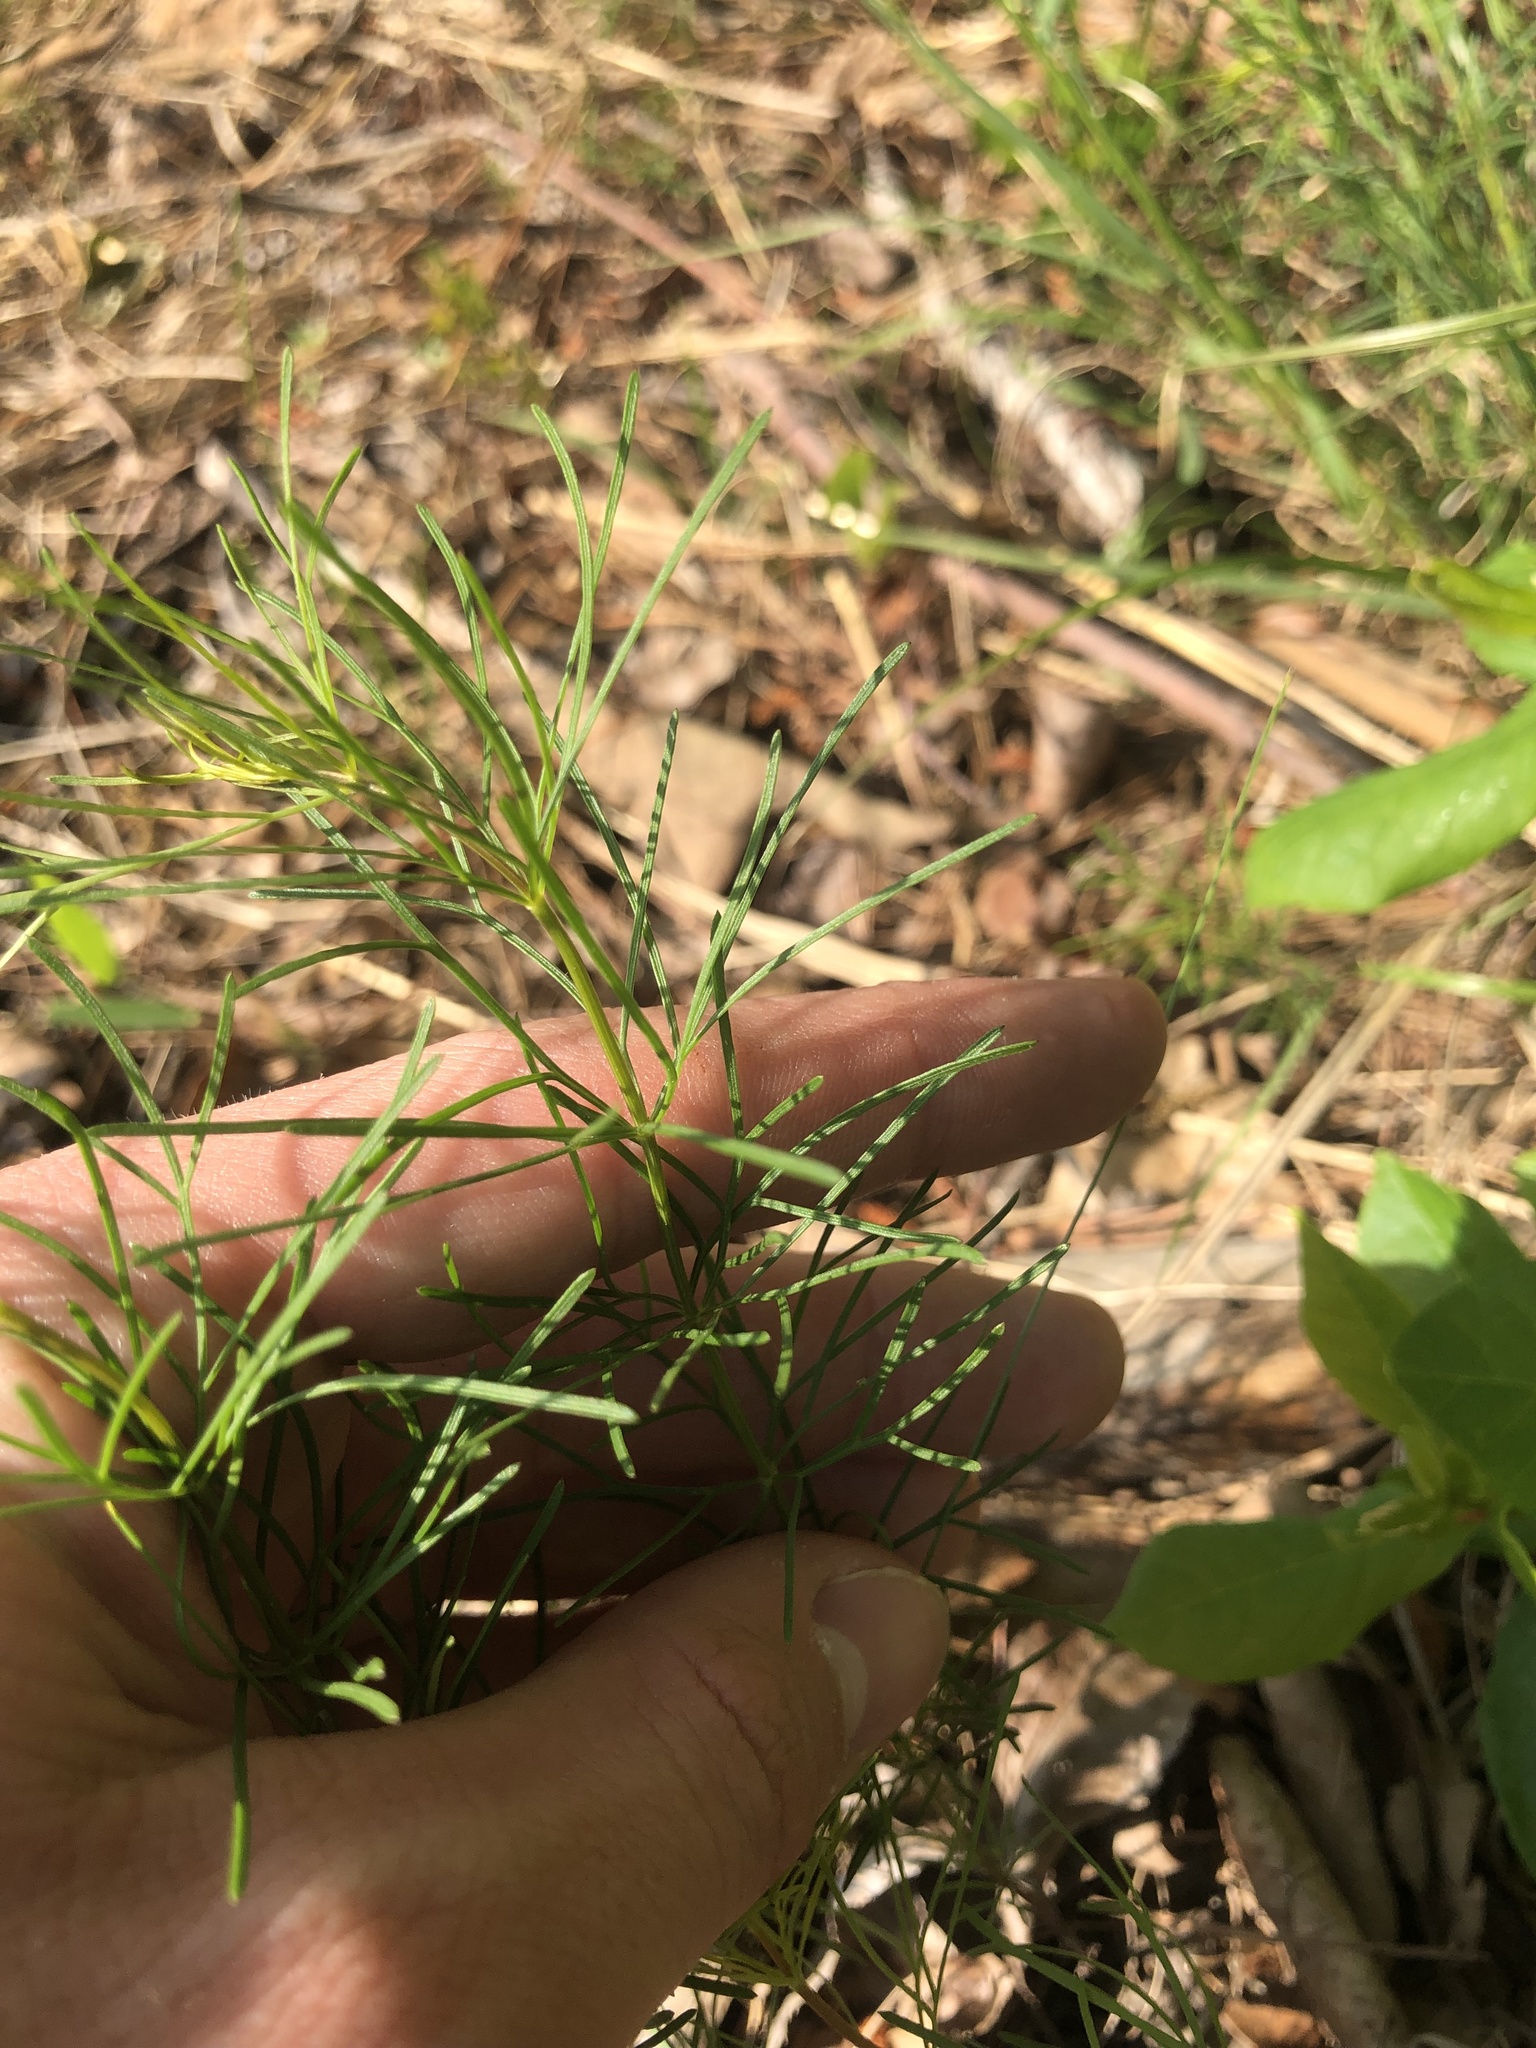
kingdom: Plantae
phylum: Tracheophyta
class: Magnoliopsida
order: Asterales
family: Asteraceae
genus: Coreopsis
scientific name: Coreopsis verticillata
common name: Whorled tickseed
